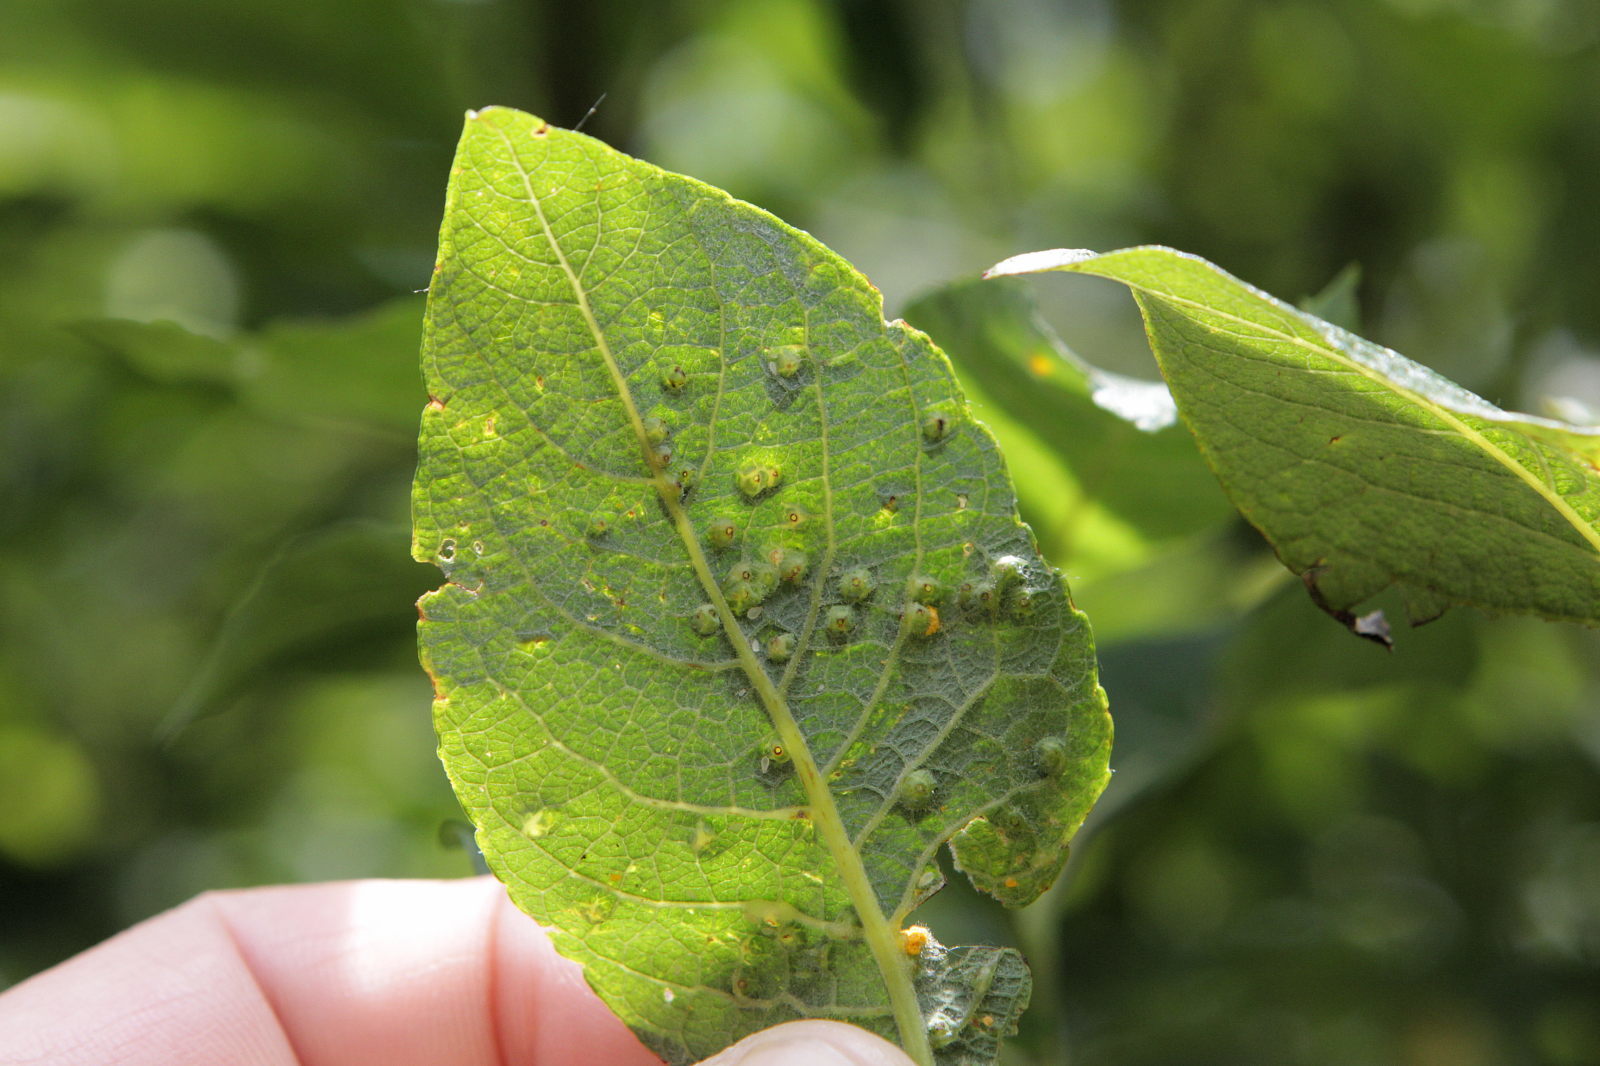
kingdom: Animalia
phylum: Arthropoda
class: Insecta
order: Diptera
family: Cecidomyiidae
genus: Iteomyia
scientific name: Iteomyia capreae
